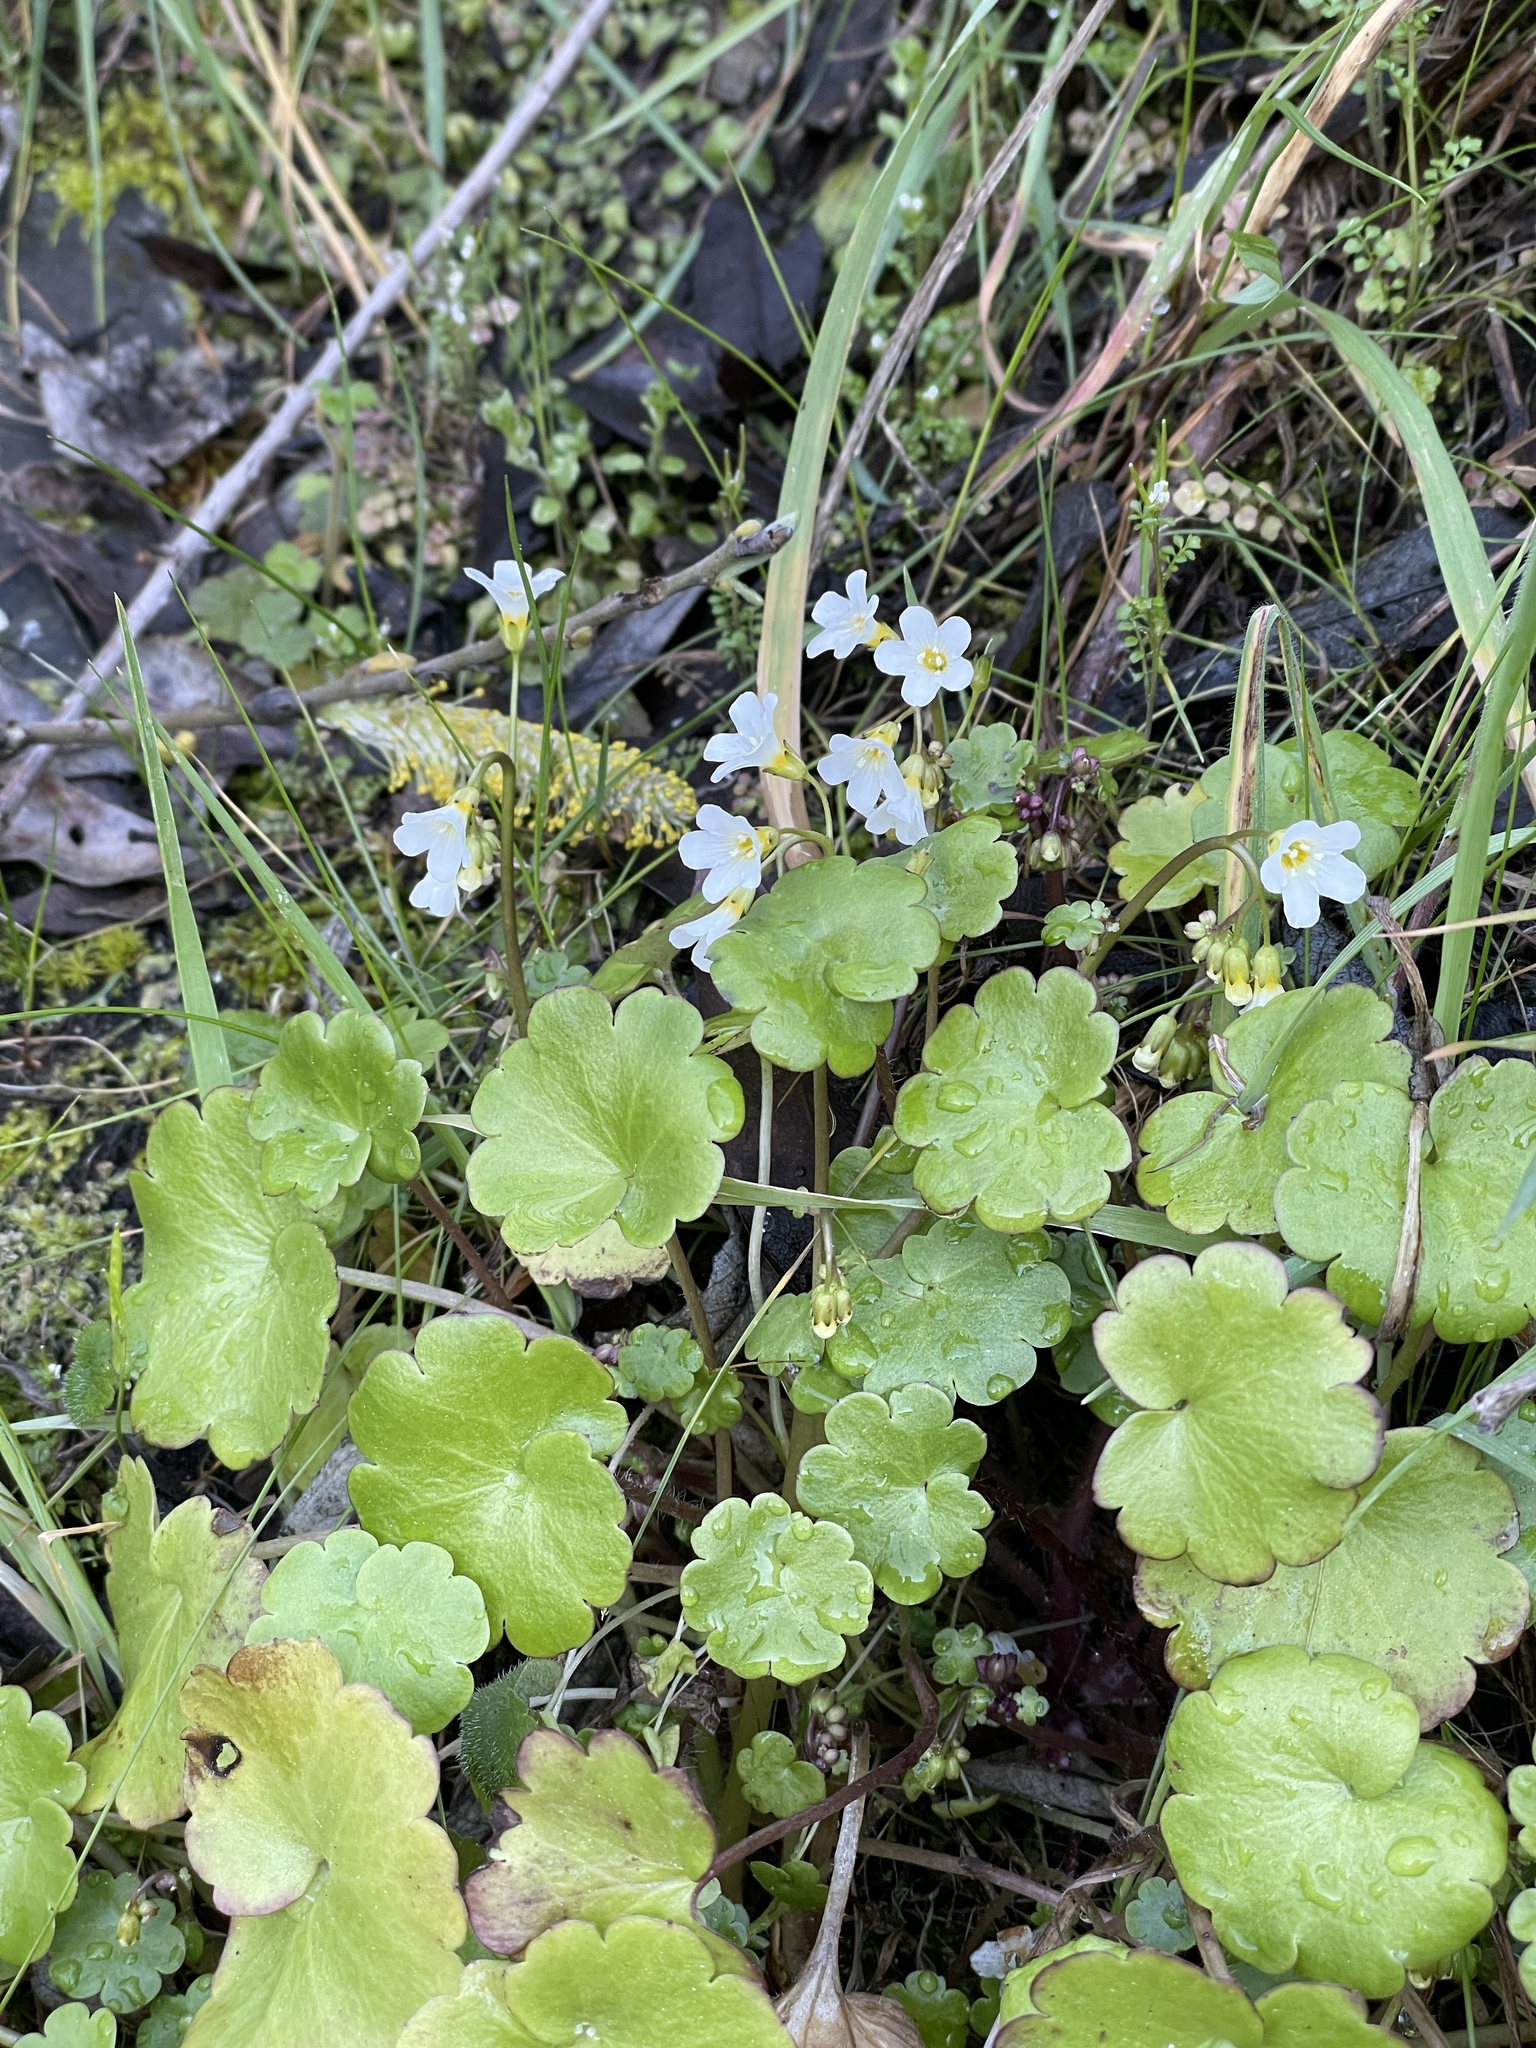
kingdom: Plantae
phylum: Tracheophyta
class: Magnoliopsida
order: Boraginales
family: Hydrophyllaceae
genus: Romanzoffia
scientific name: Romanzoffia californica
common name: California mistmaiden
